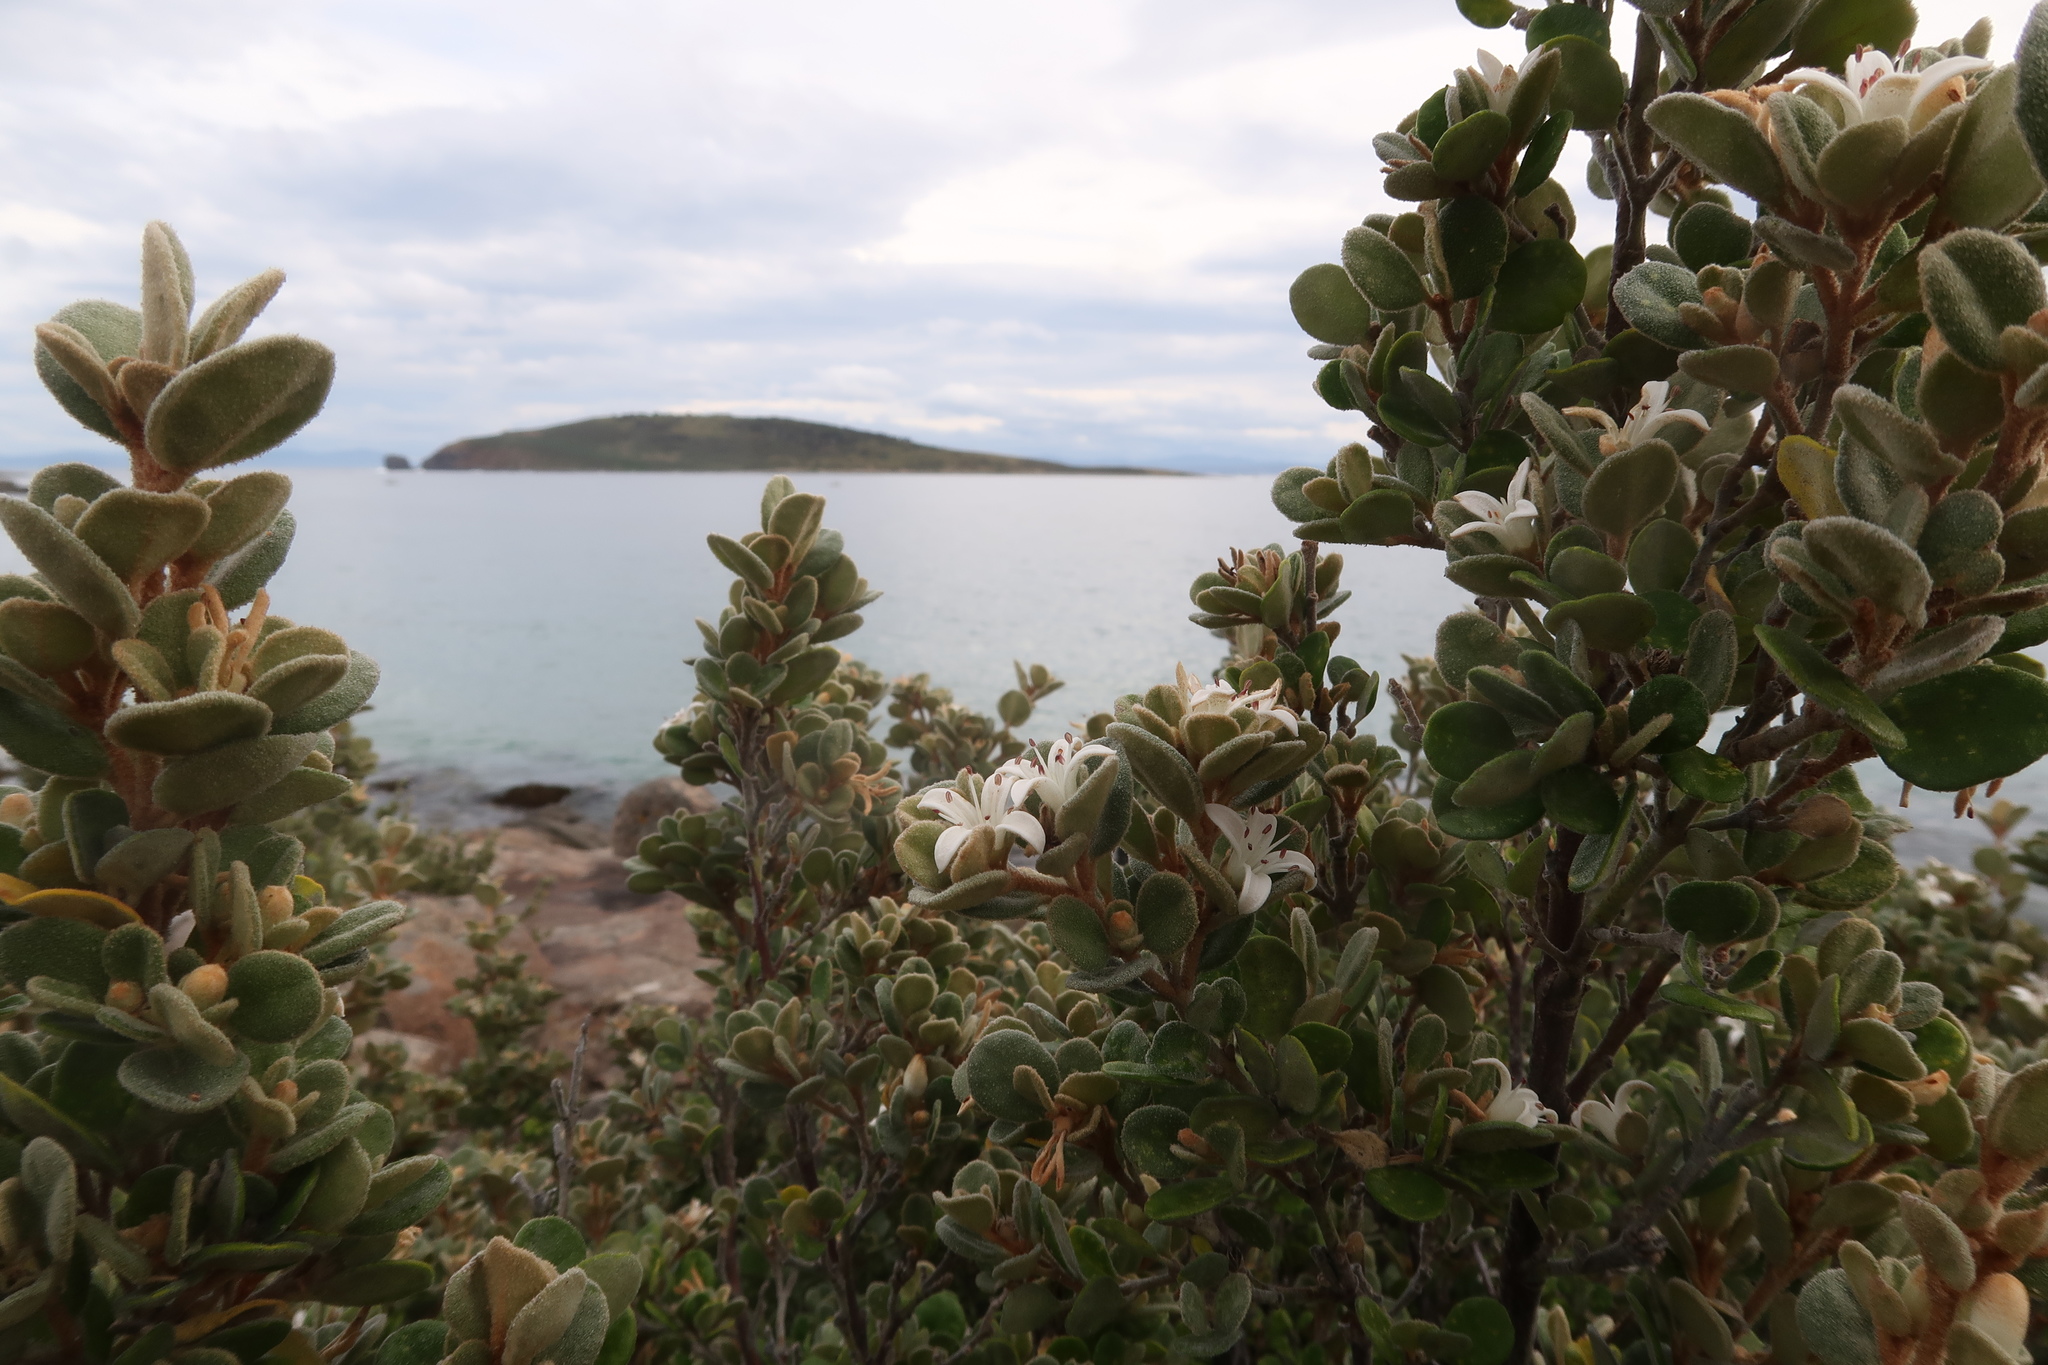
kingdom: Plantae
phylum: Tracheophyta
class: Magnoliopsida
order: Sapindales
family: Rutaceae
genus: Correa
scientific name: Correa alba
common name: White correa
